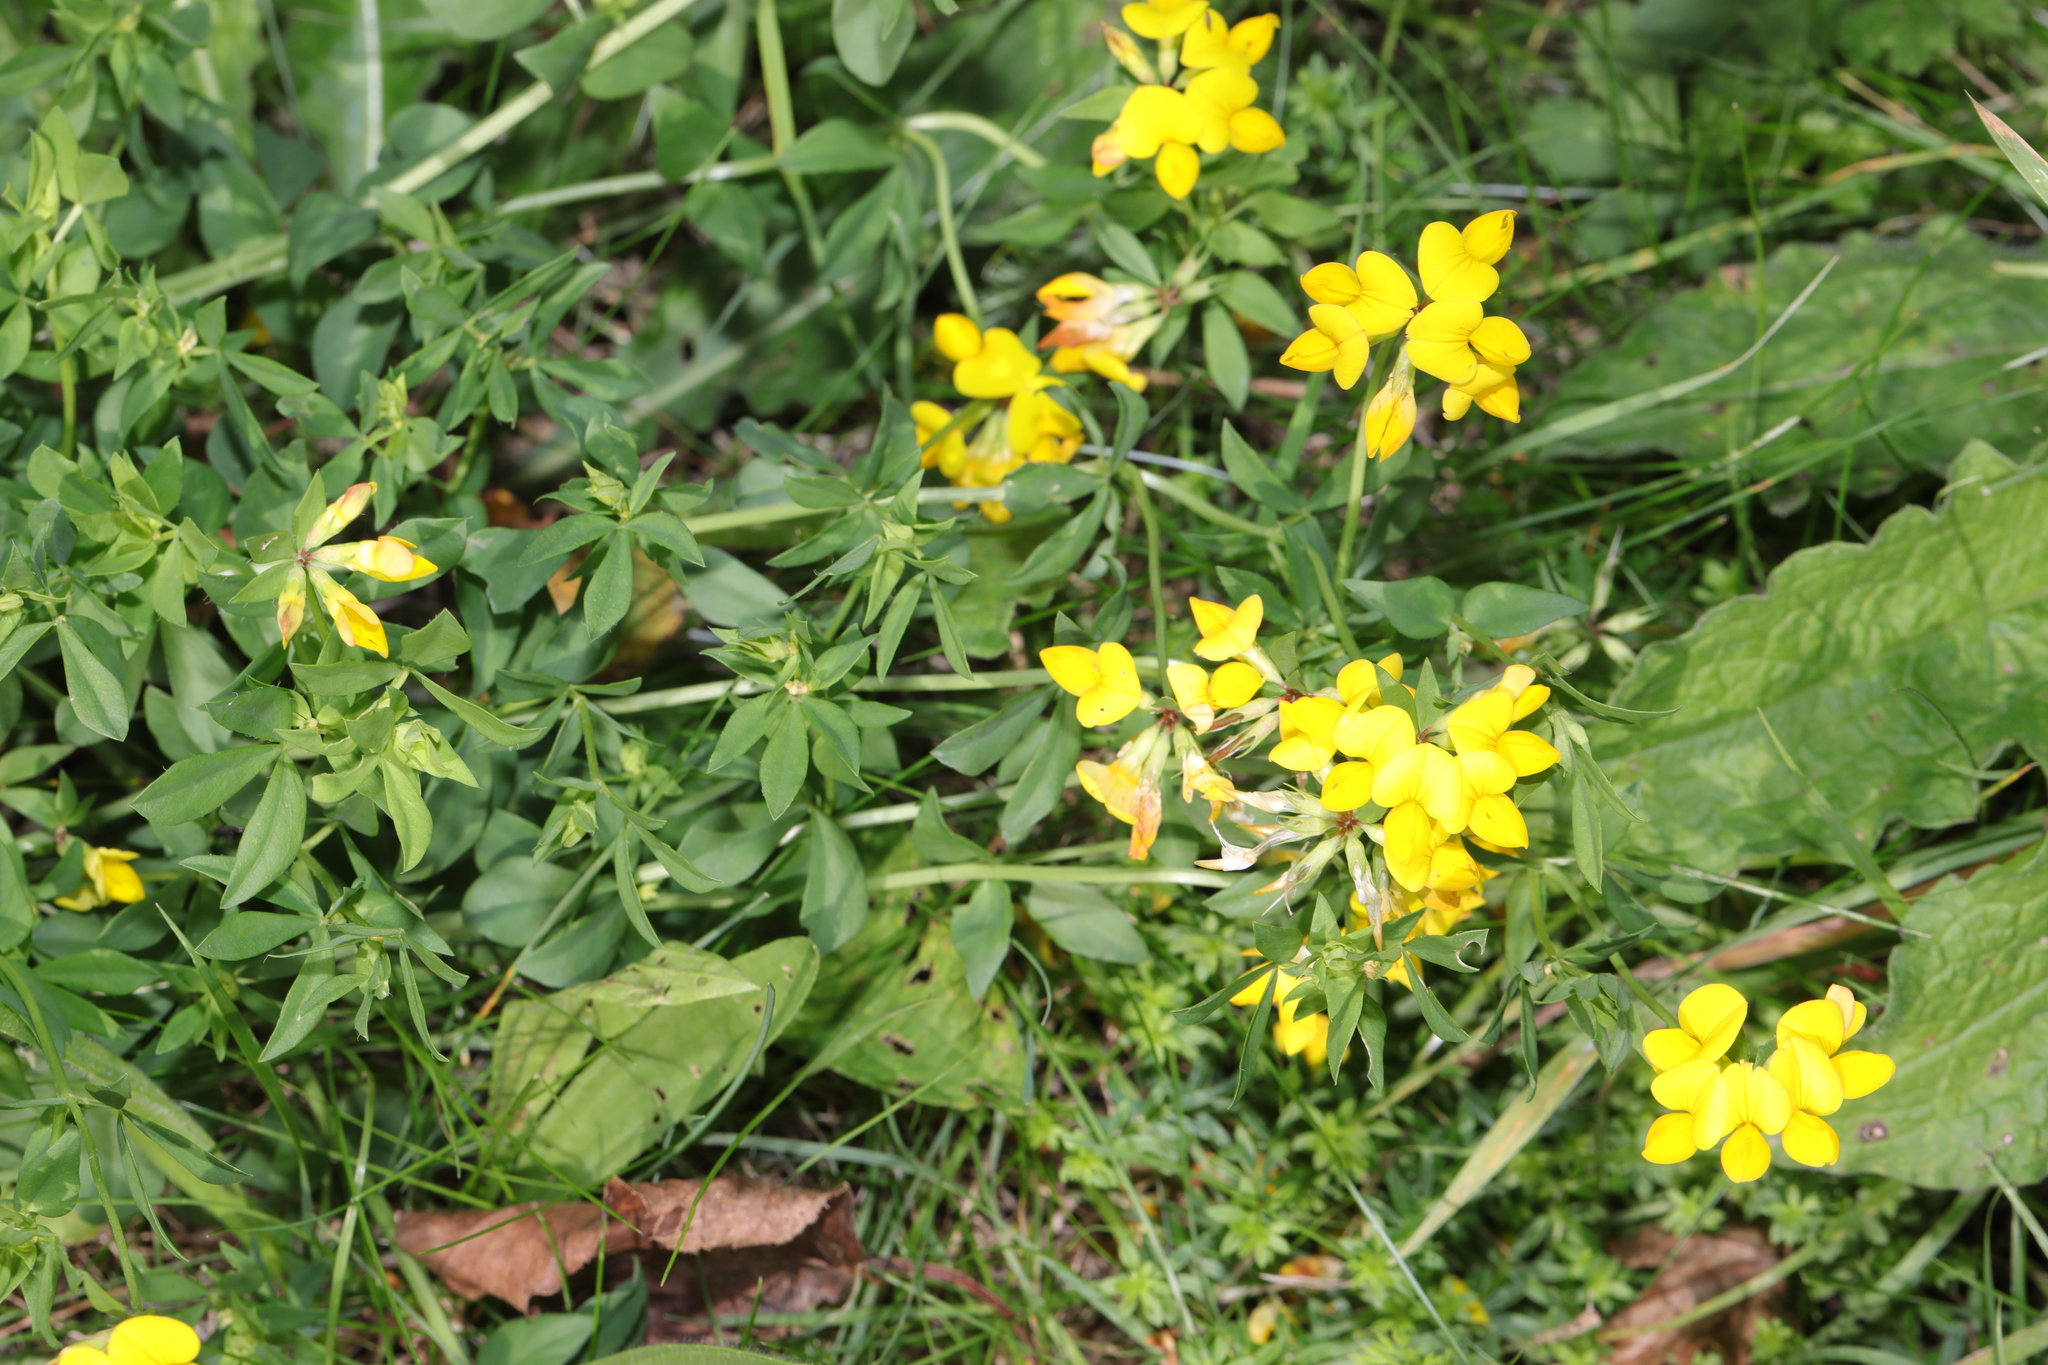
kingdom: Plantae
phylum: Tracheophyta
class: Magnoliopsida
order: Fabales
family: Fabaceae
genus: Lotus
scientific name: Lotus corniculatus
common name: Common bird's-foot-trefoil
